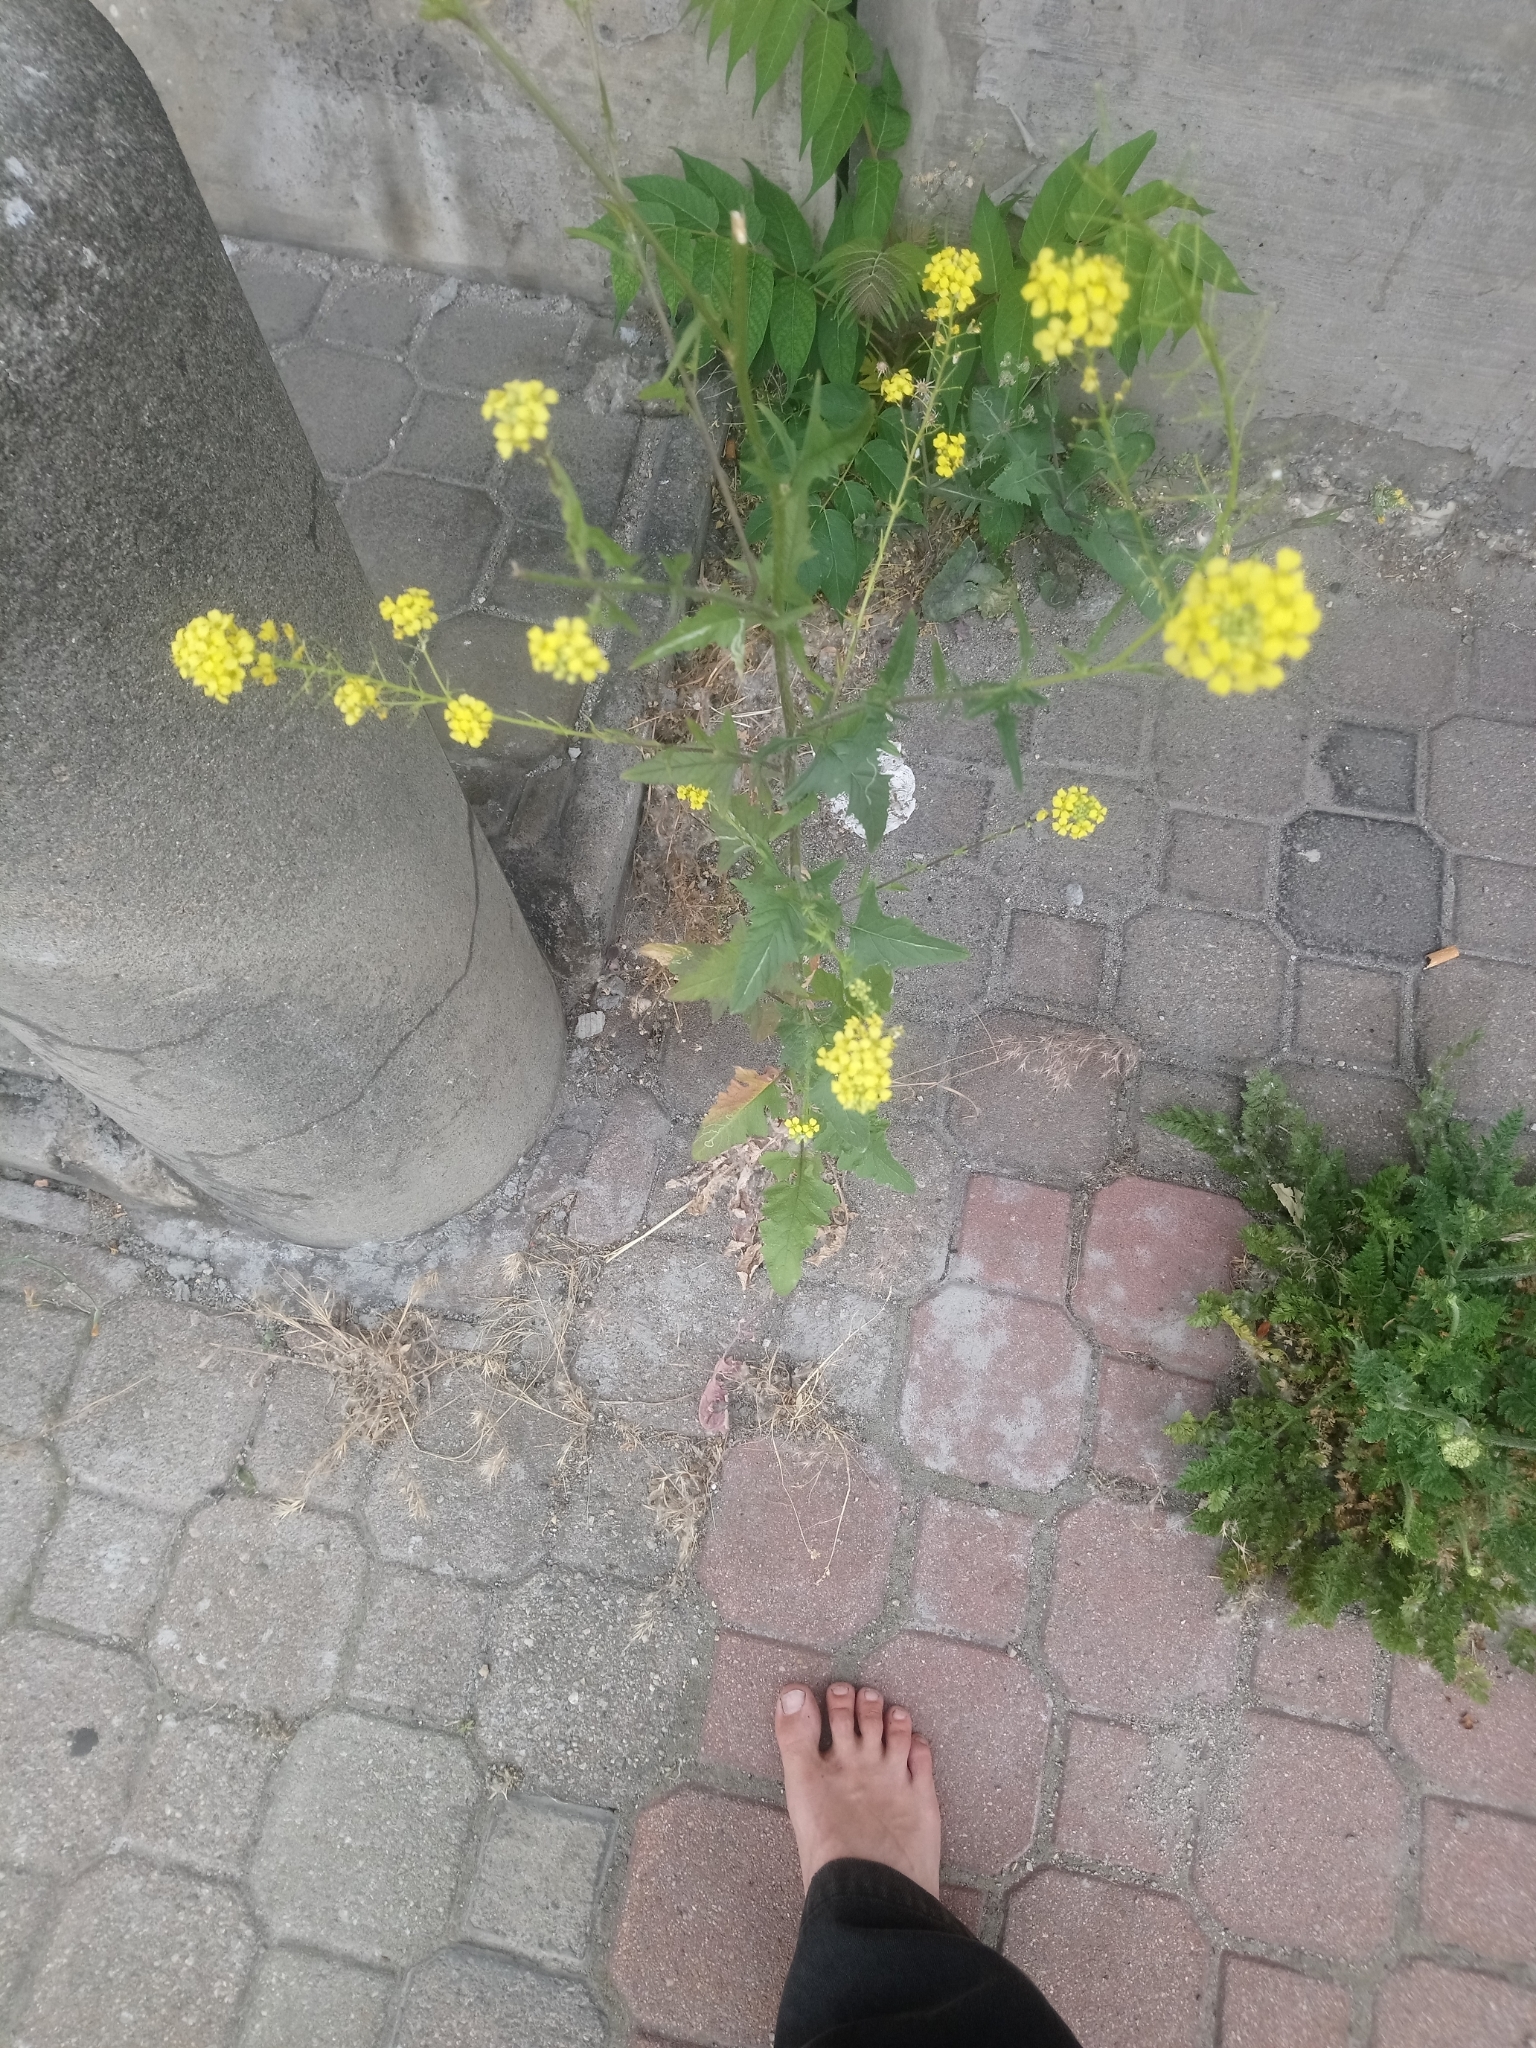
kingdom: Plantae
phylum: Tracheophyta
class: Magnoliopsida
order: Brassicales
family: Brassicaceae
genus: Sisymbrium
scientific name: Sisymbrium loeselii
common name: False london-rocket
